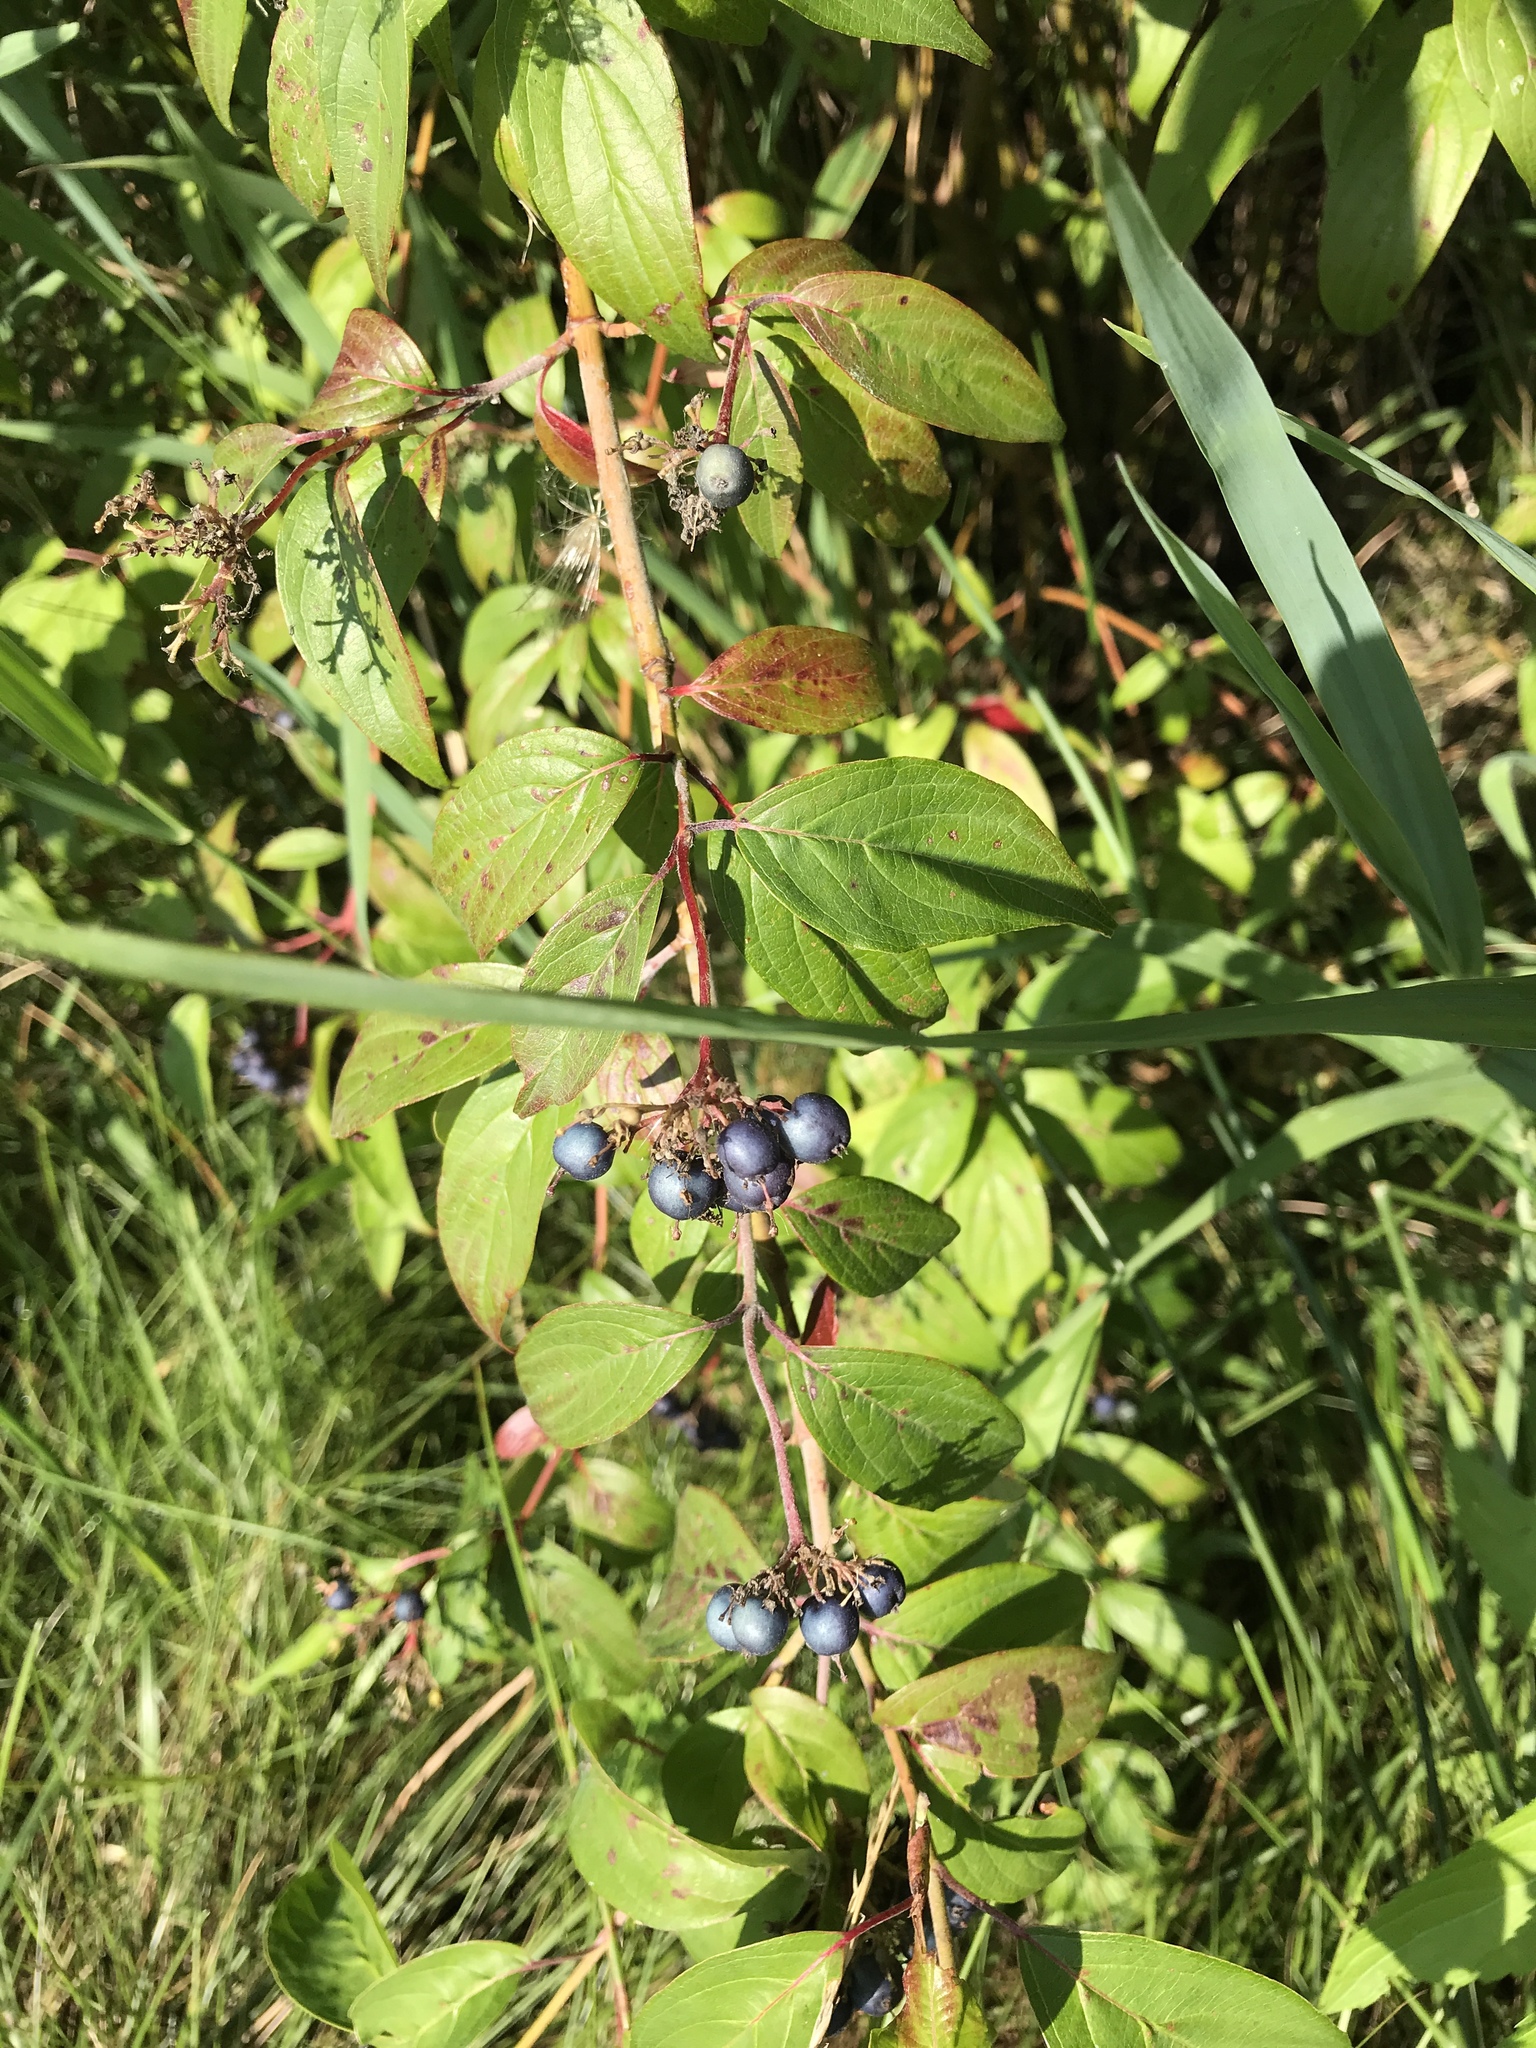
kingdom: Plantae
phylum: Tracheophyta
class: Magnoliopsida
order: Cornales
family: Cornaceae
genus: Cornus
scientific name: Cornus amomum
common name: Silky dogwood
